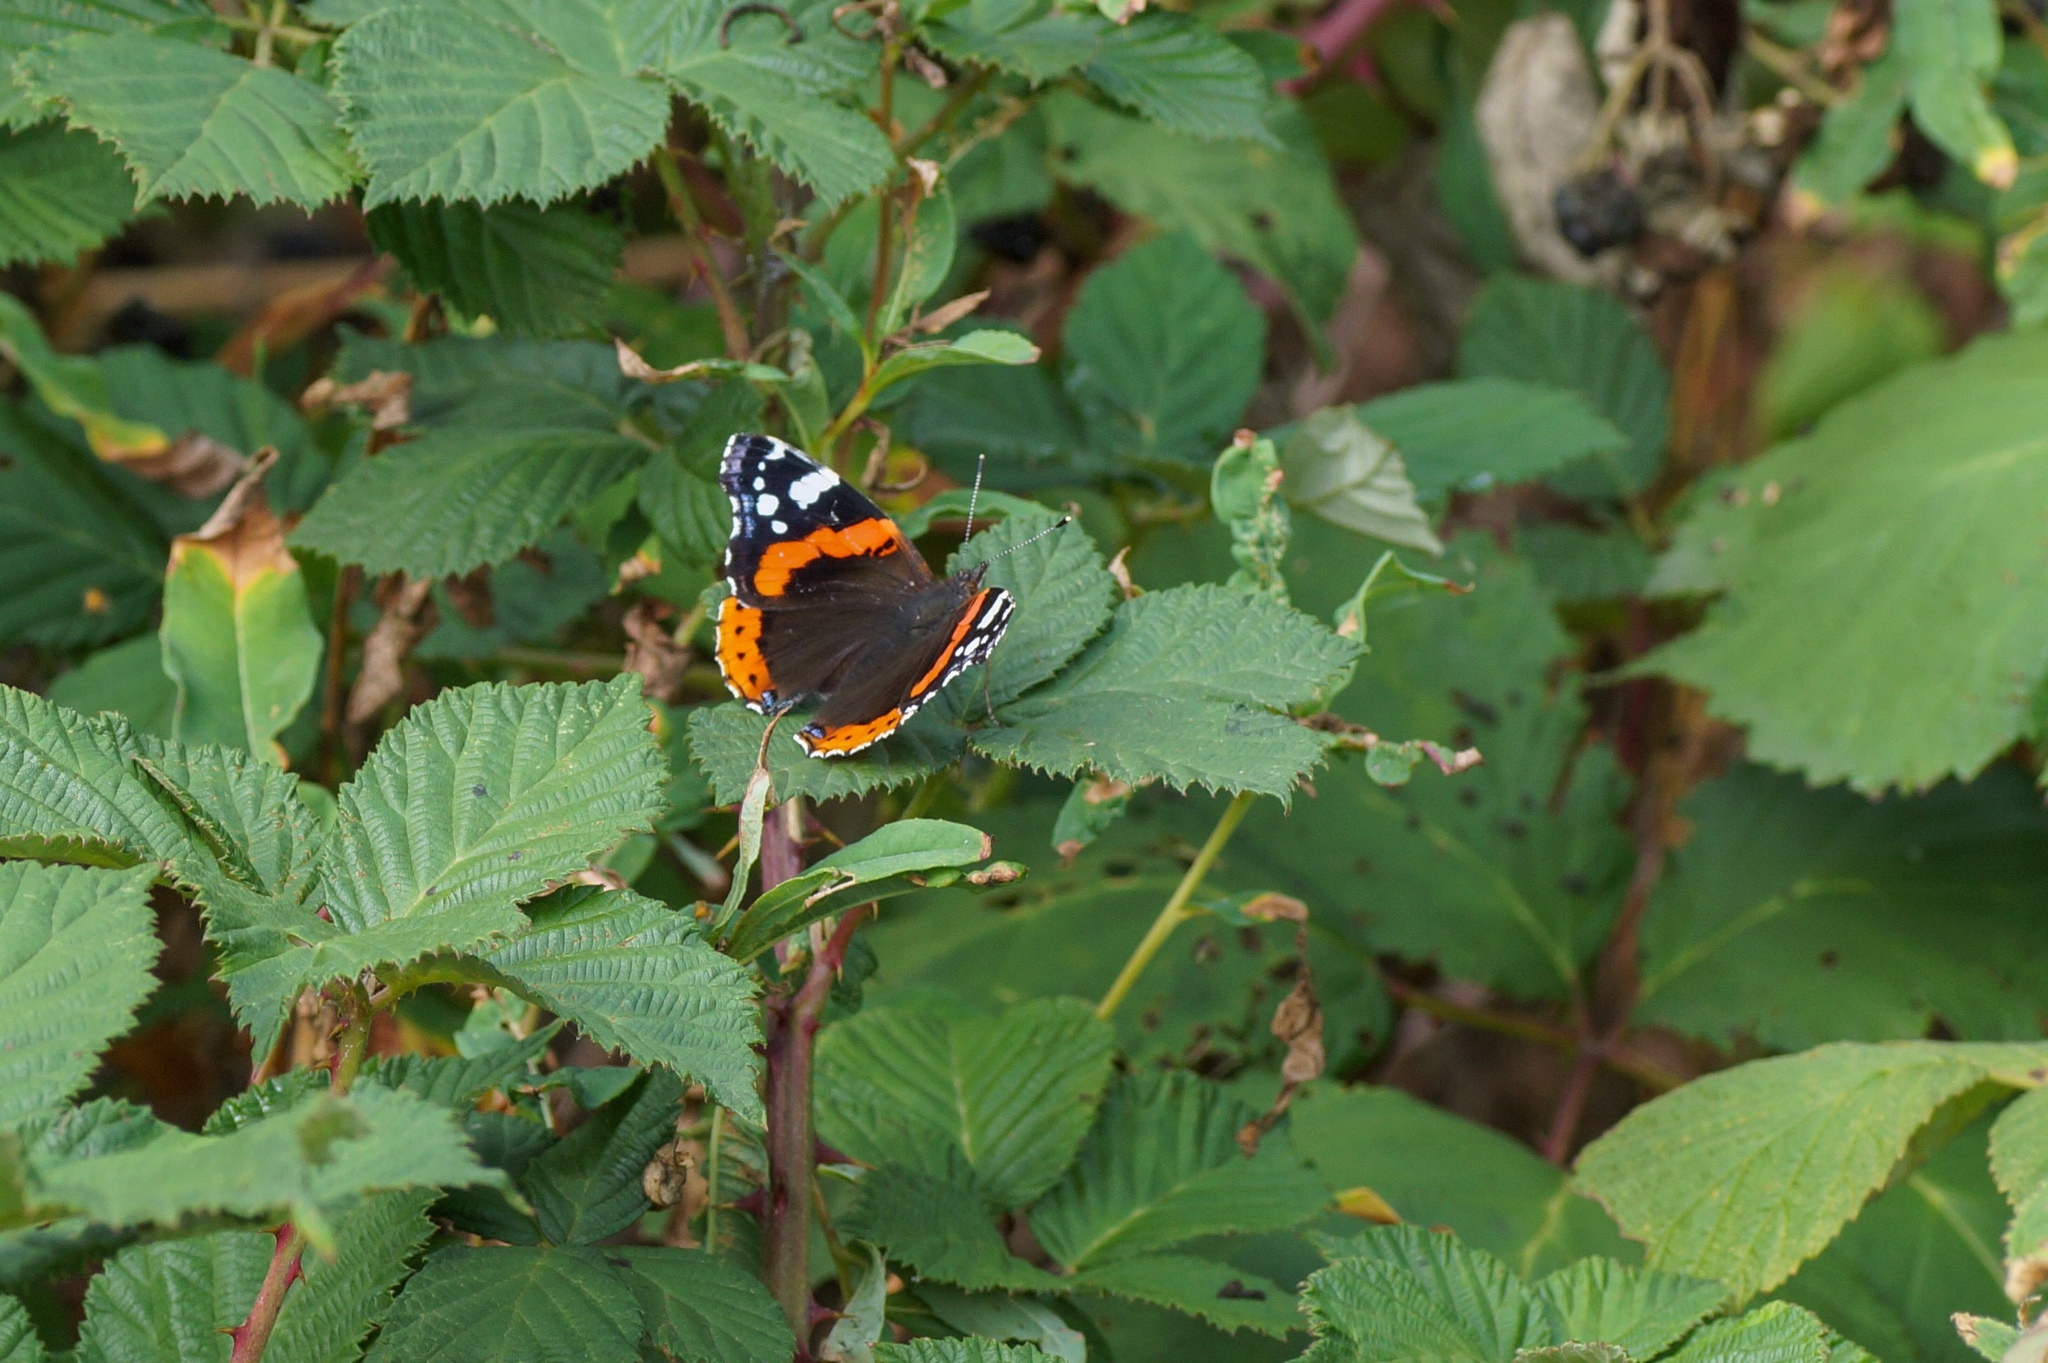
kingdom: Animalia
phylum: Arthropoda
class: Insecta
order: Lepidoptera
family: Nymphalidae
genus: Vanessa
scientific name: Vanessa atalanta
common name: Red admiral
